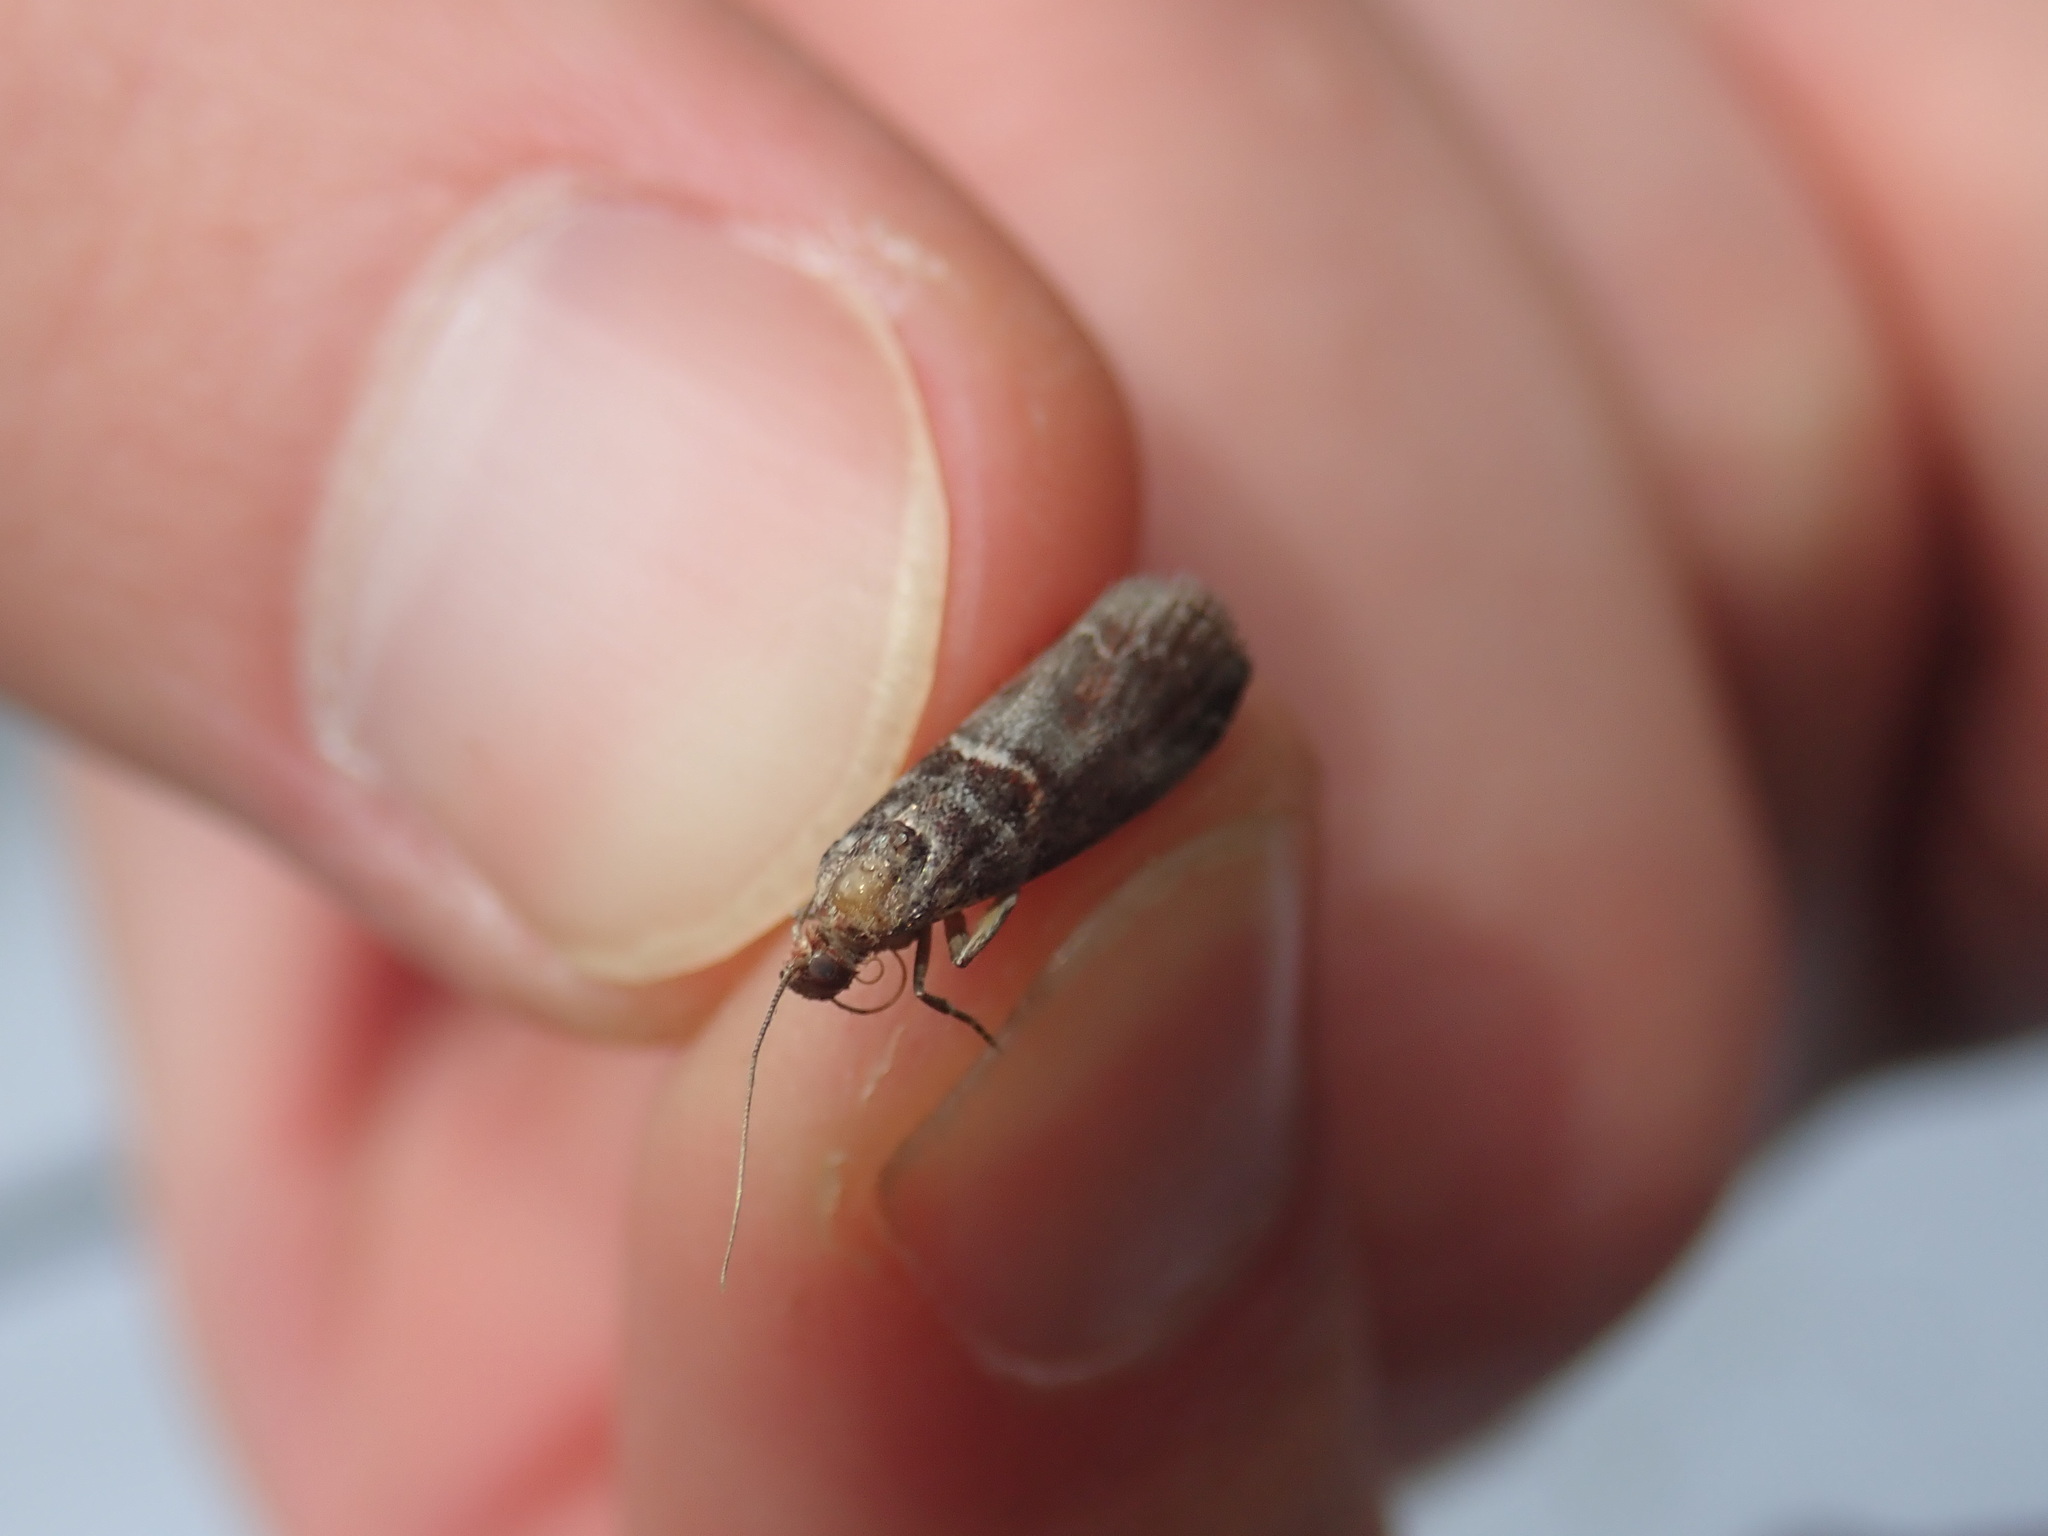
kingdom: Animalia
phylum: Arthropoda
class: Insecta
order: Lepidoptera
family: Pyralidae
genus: Acrobasis
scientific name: Acrobasis advenella
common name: Grey knot-horn
